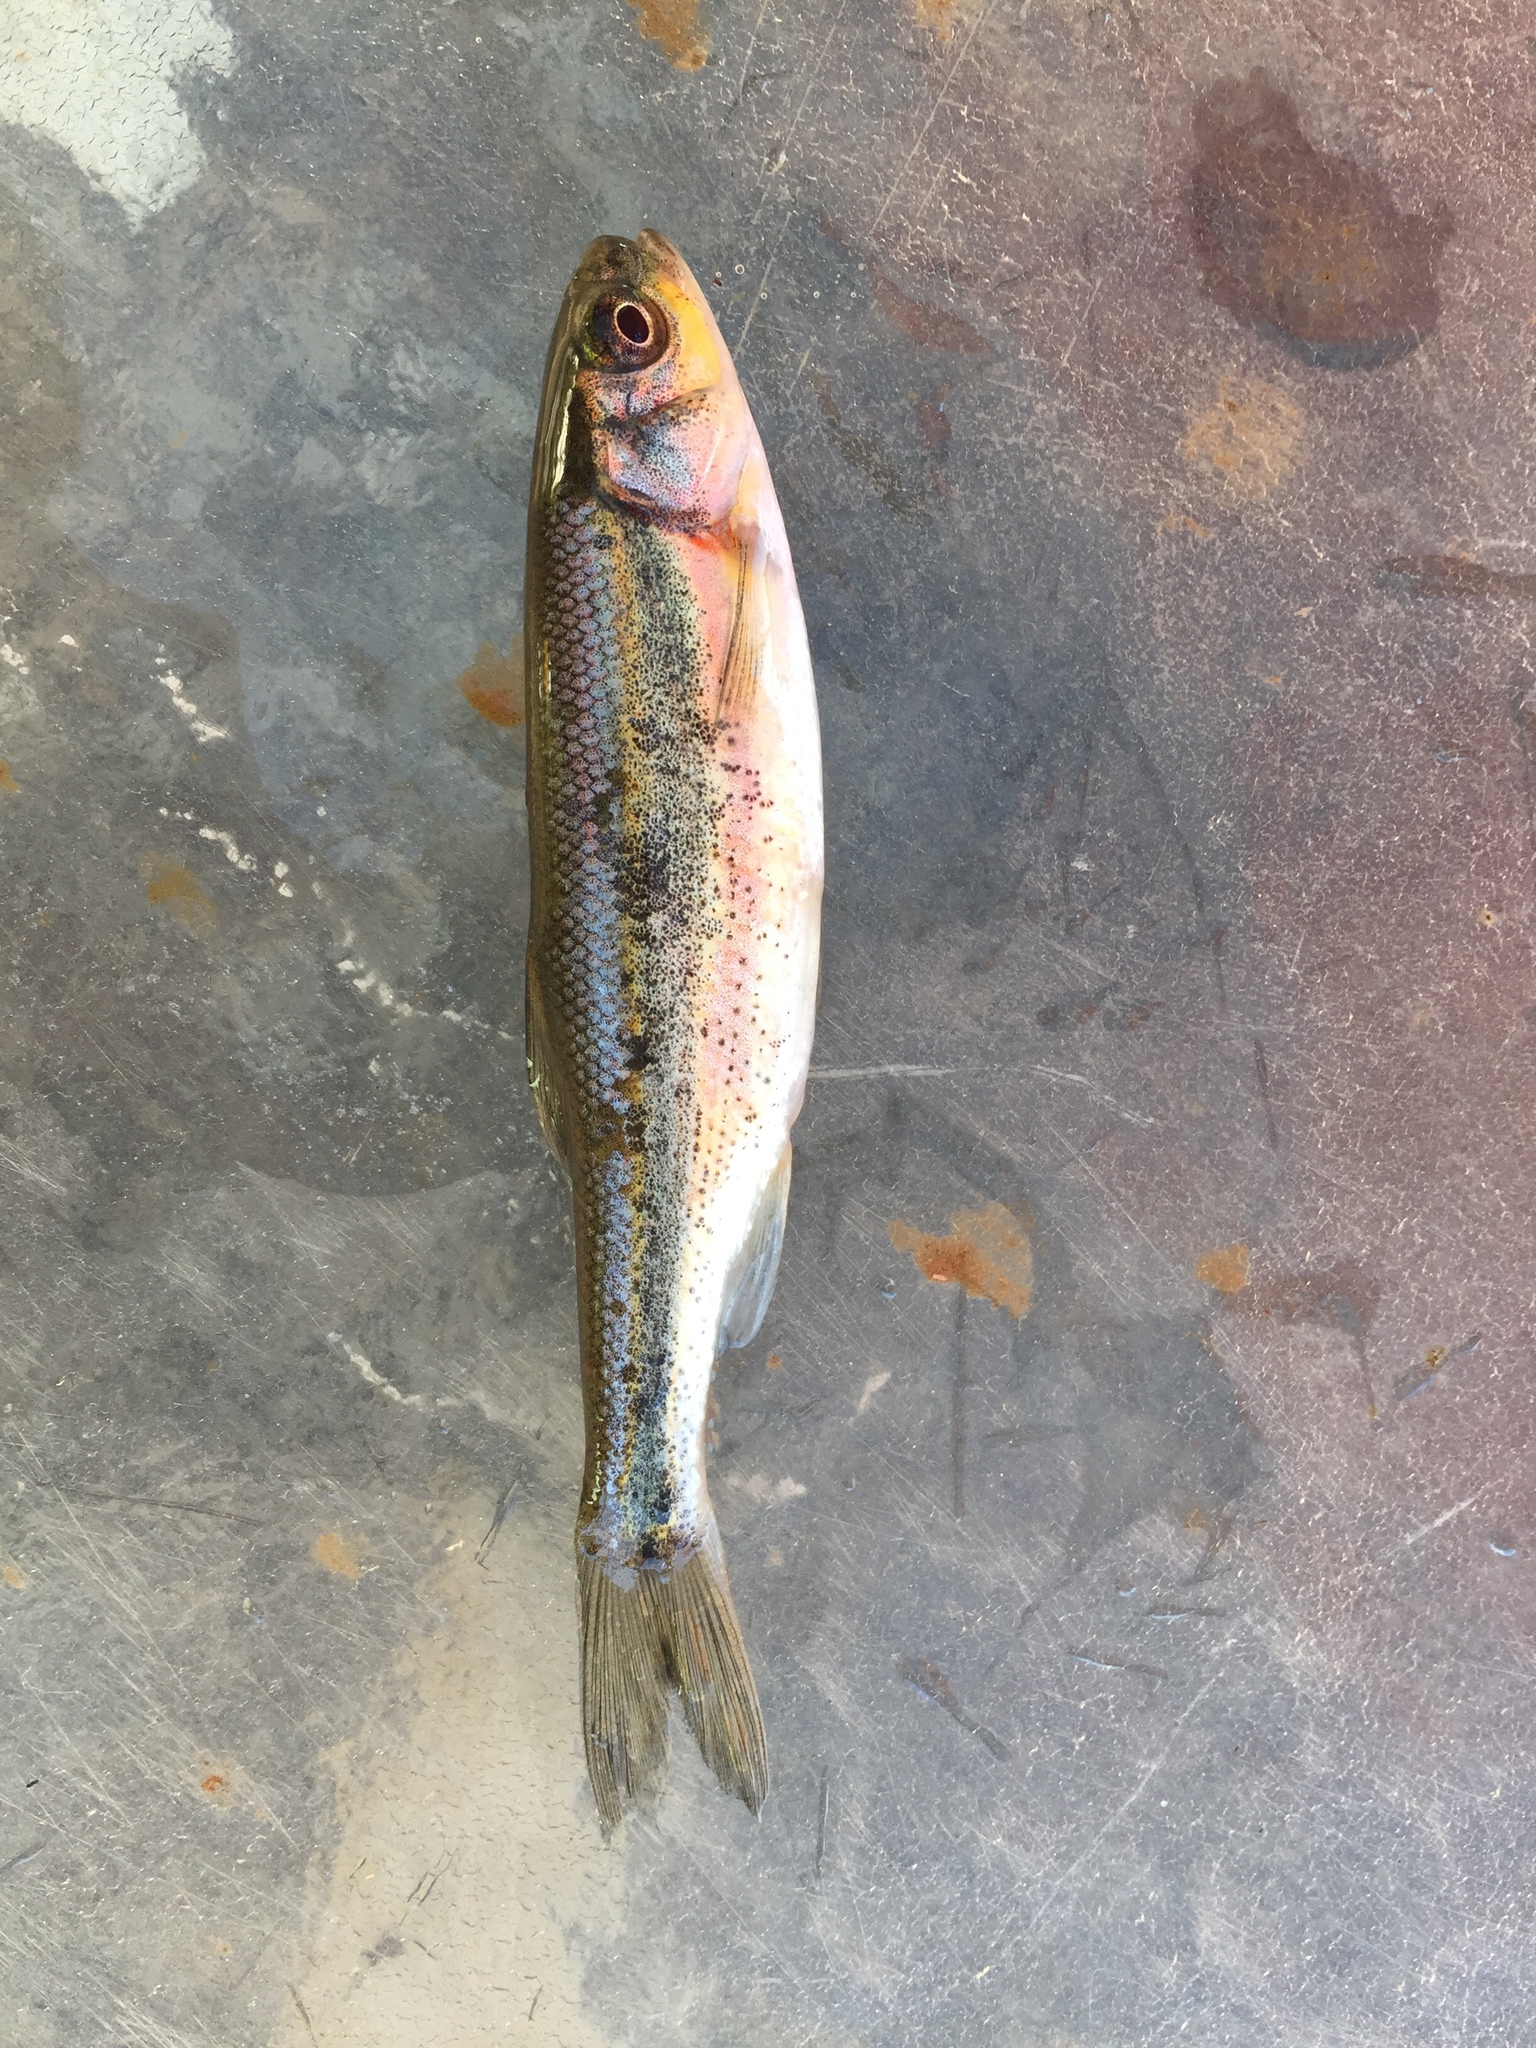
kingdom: Animalia
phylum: Chordata
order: Cypriniformes
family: Cyprinidae
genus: Richardsonius
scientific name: Richardsonius egregius
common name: Lahontan redside
